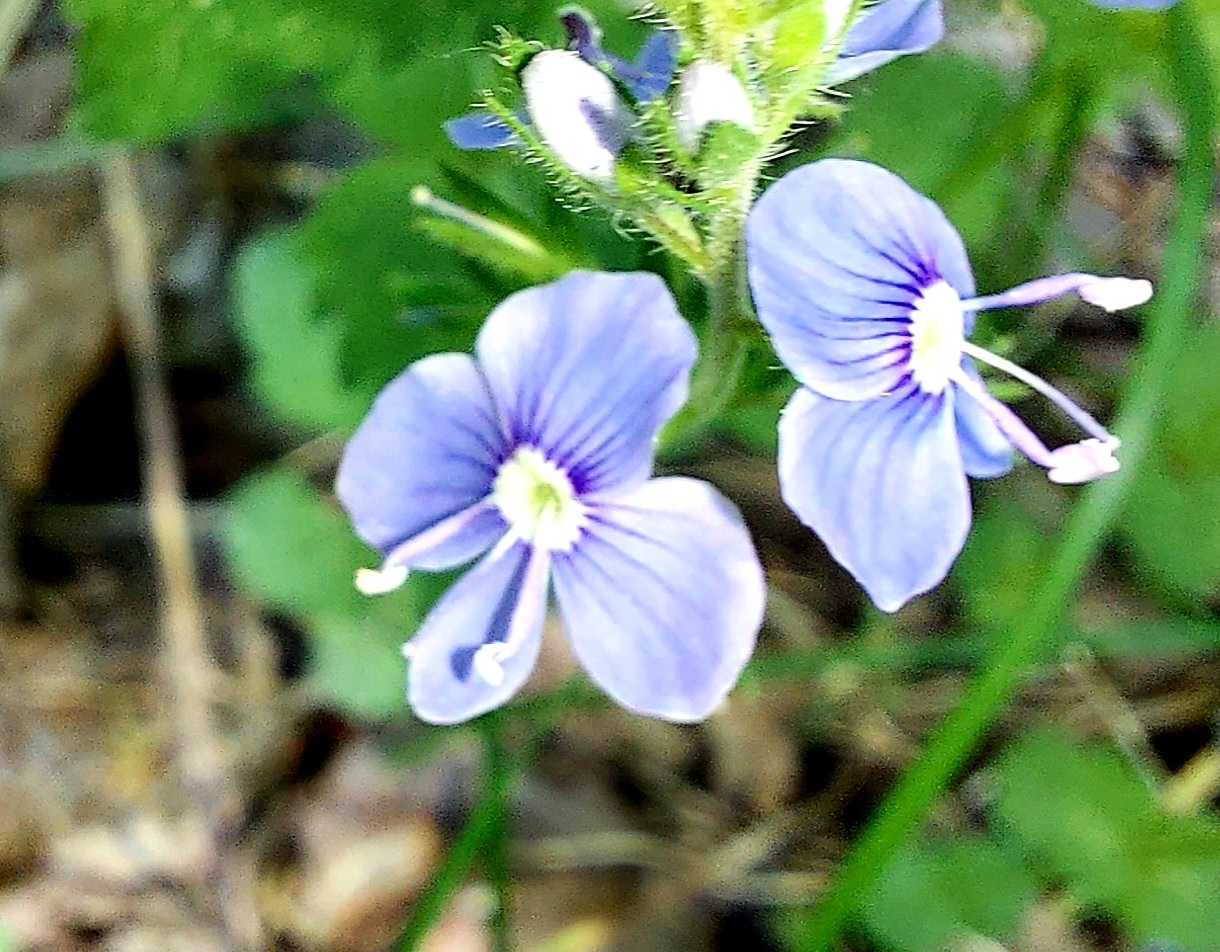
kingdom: Plantae
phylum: Tracheophyta
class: Magnoliopsida
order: Lamiales
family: Plantaginaceae
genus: Veronica
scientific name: Veronica chamaedrys
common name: Germander speedwell
